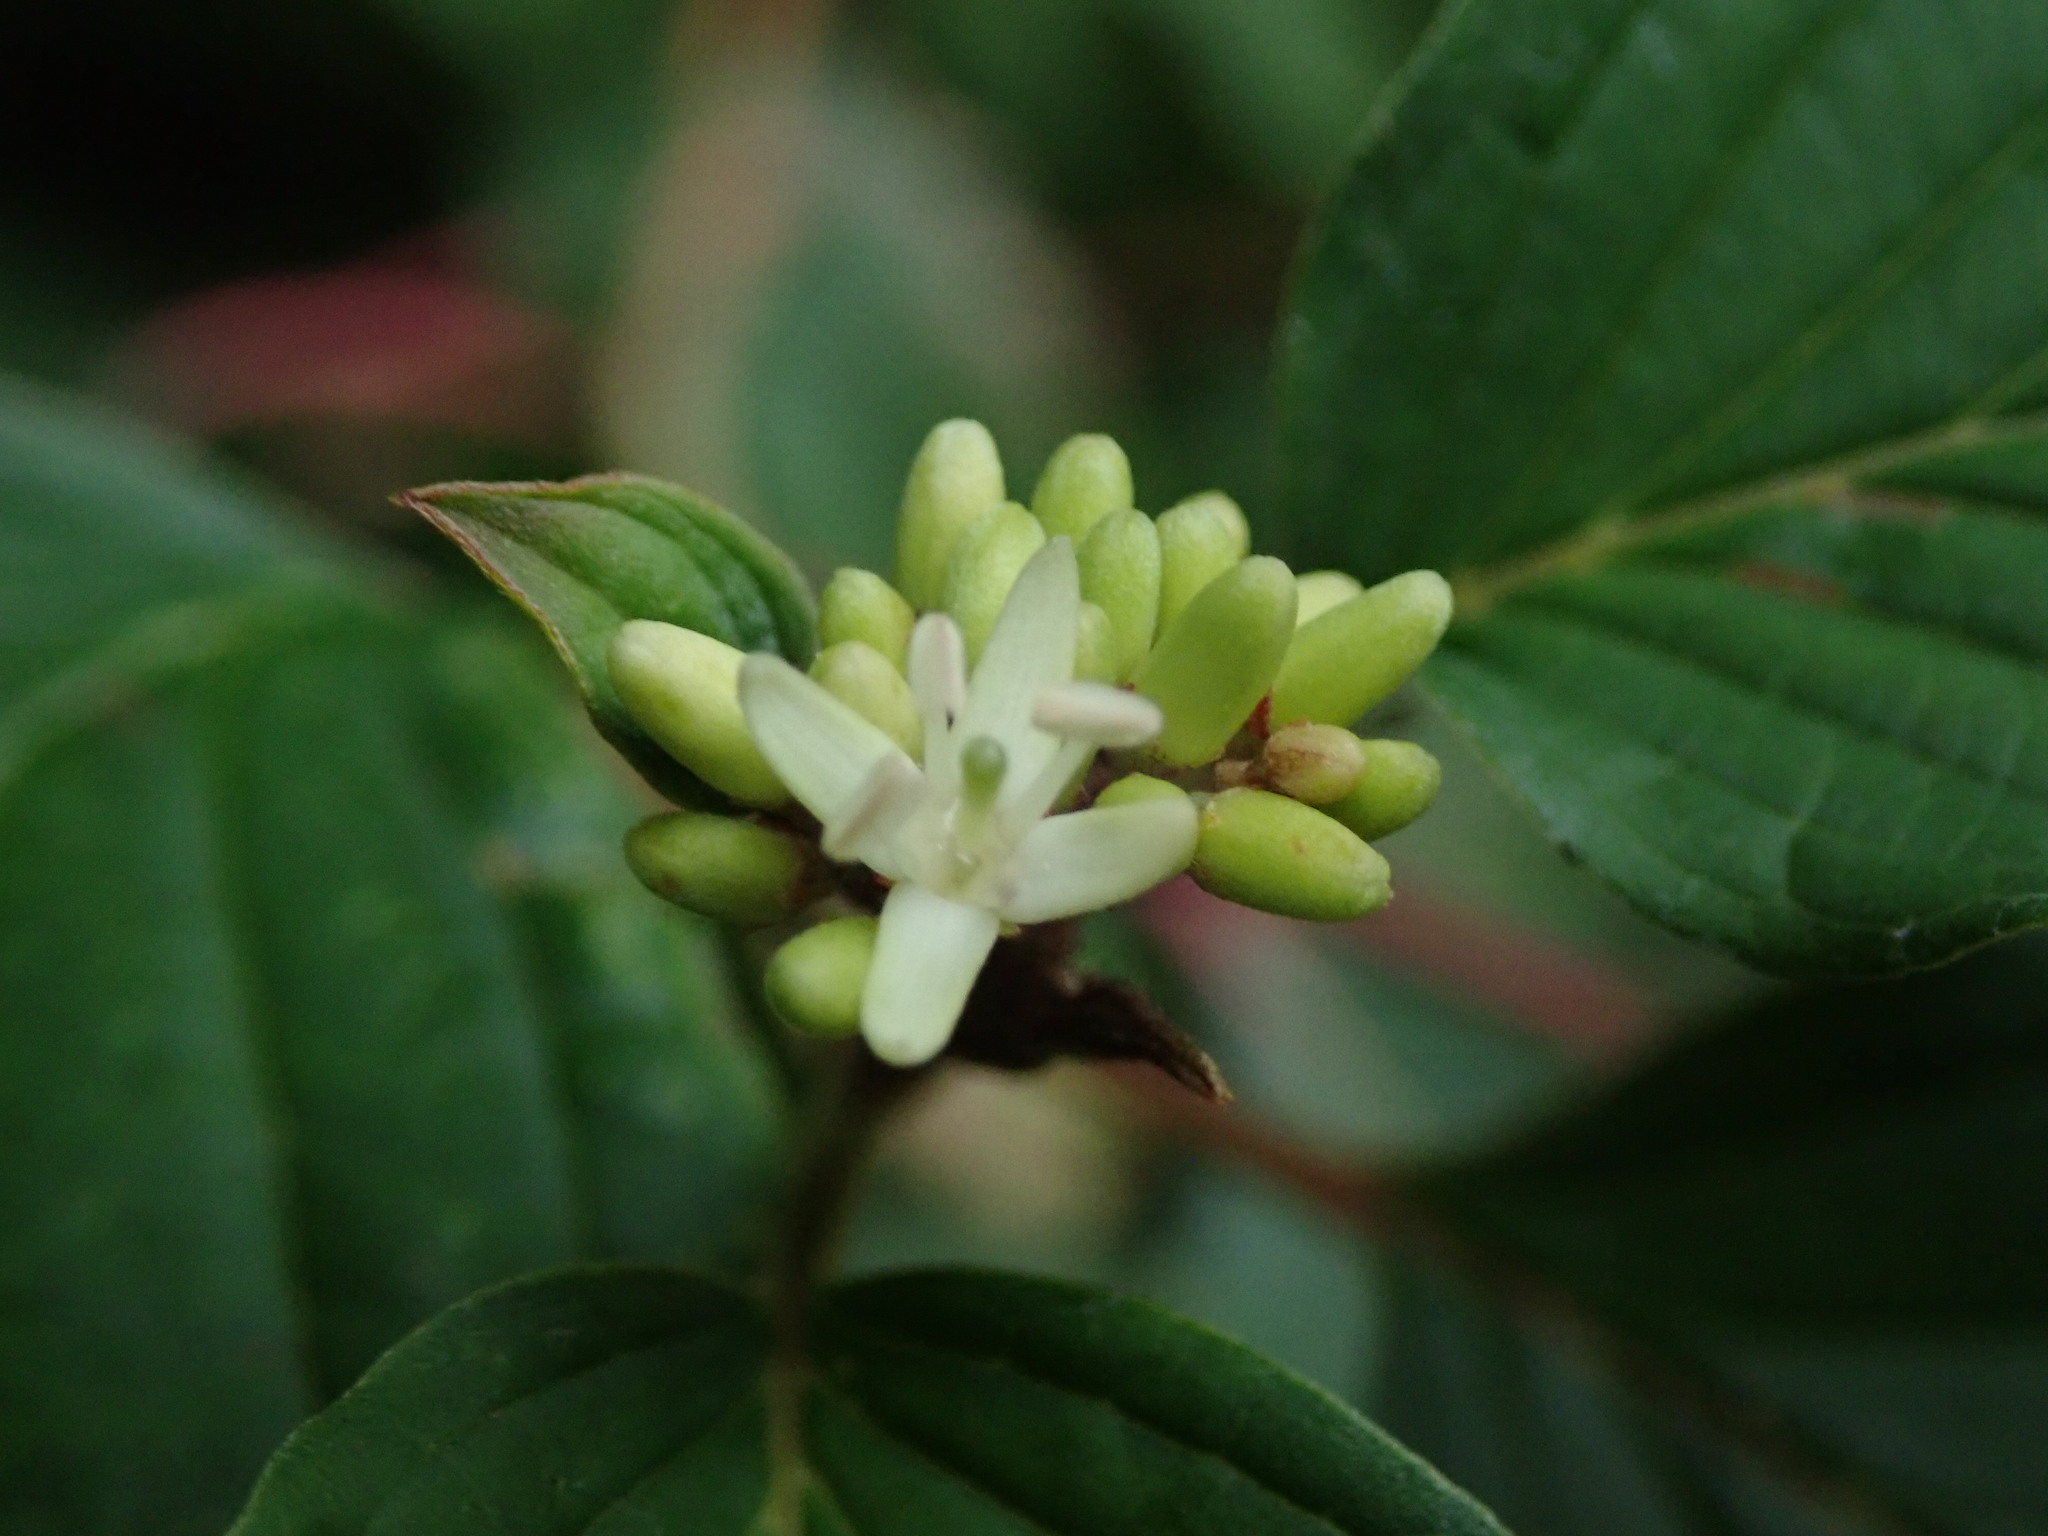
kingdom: Plantae
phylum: Tracheophyta
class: Magnoliopsida
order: Cornales
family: Cornaceae
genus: Cornus
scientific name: Cornus sanguinea
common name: Dogwood
